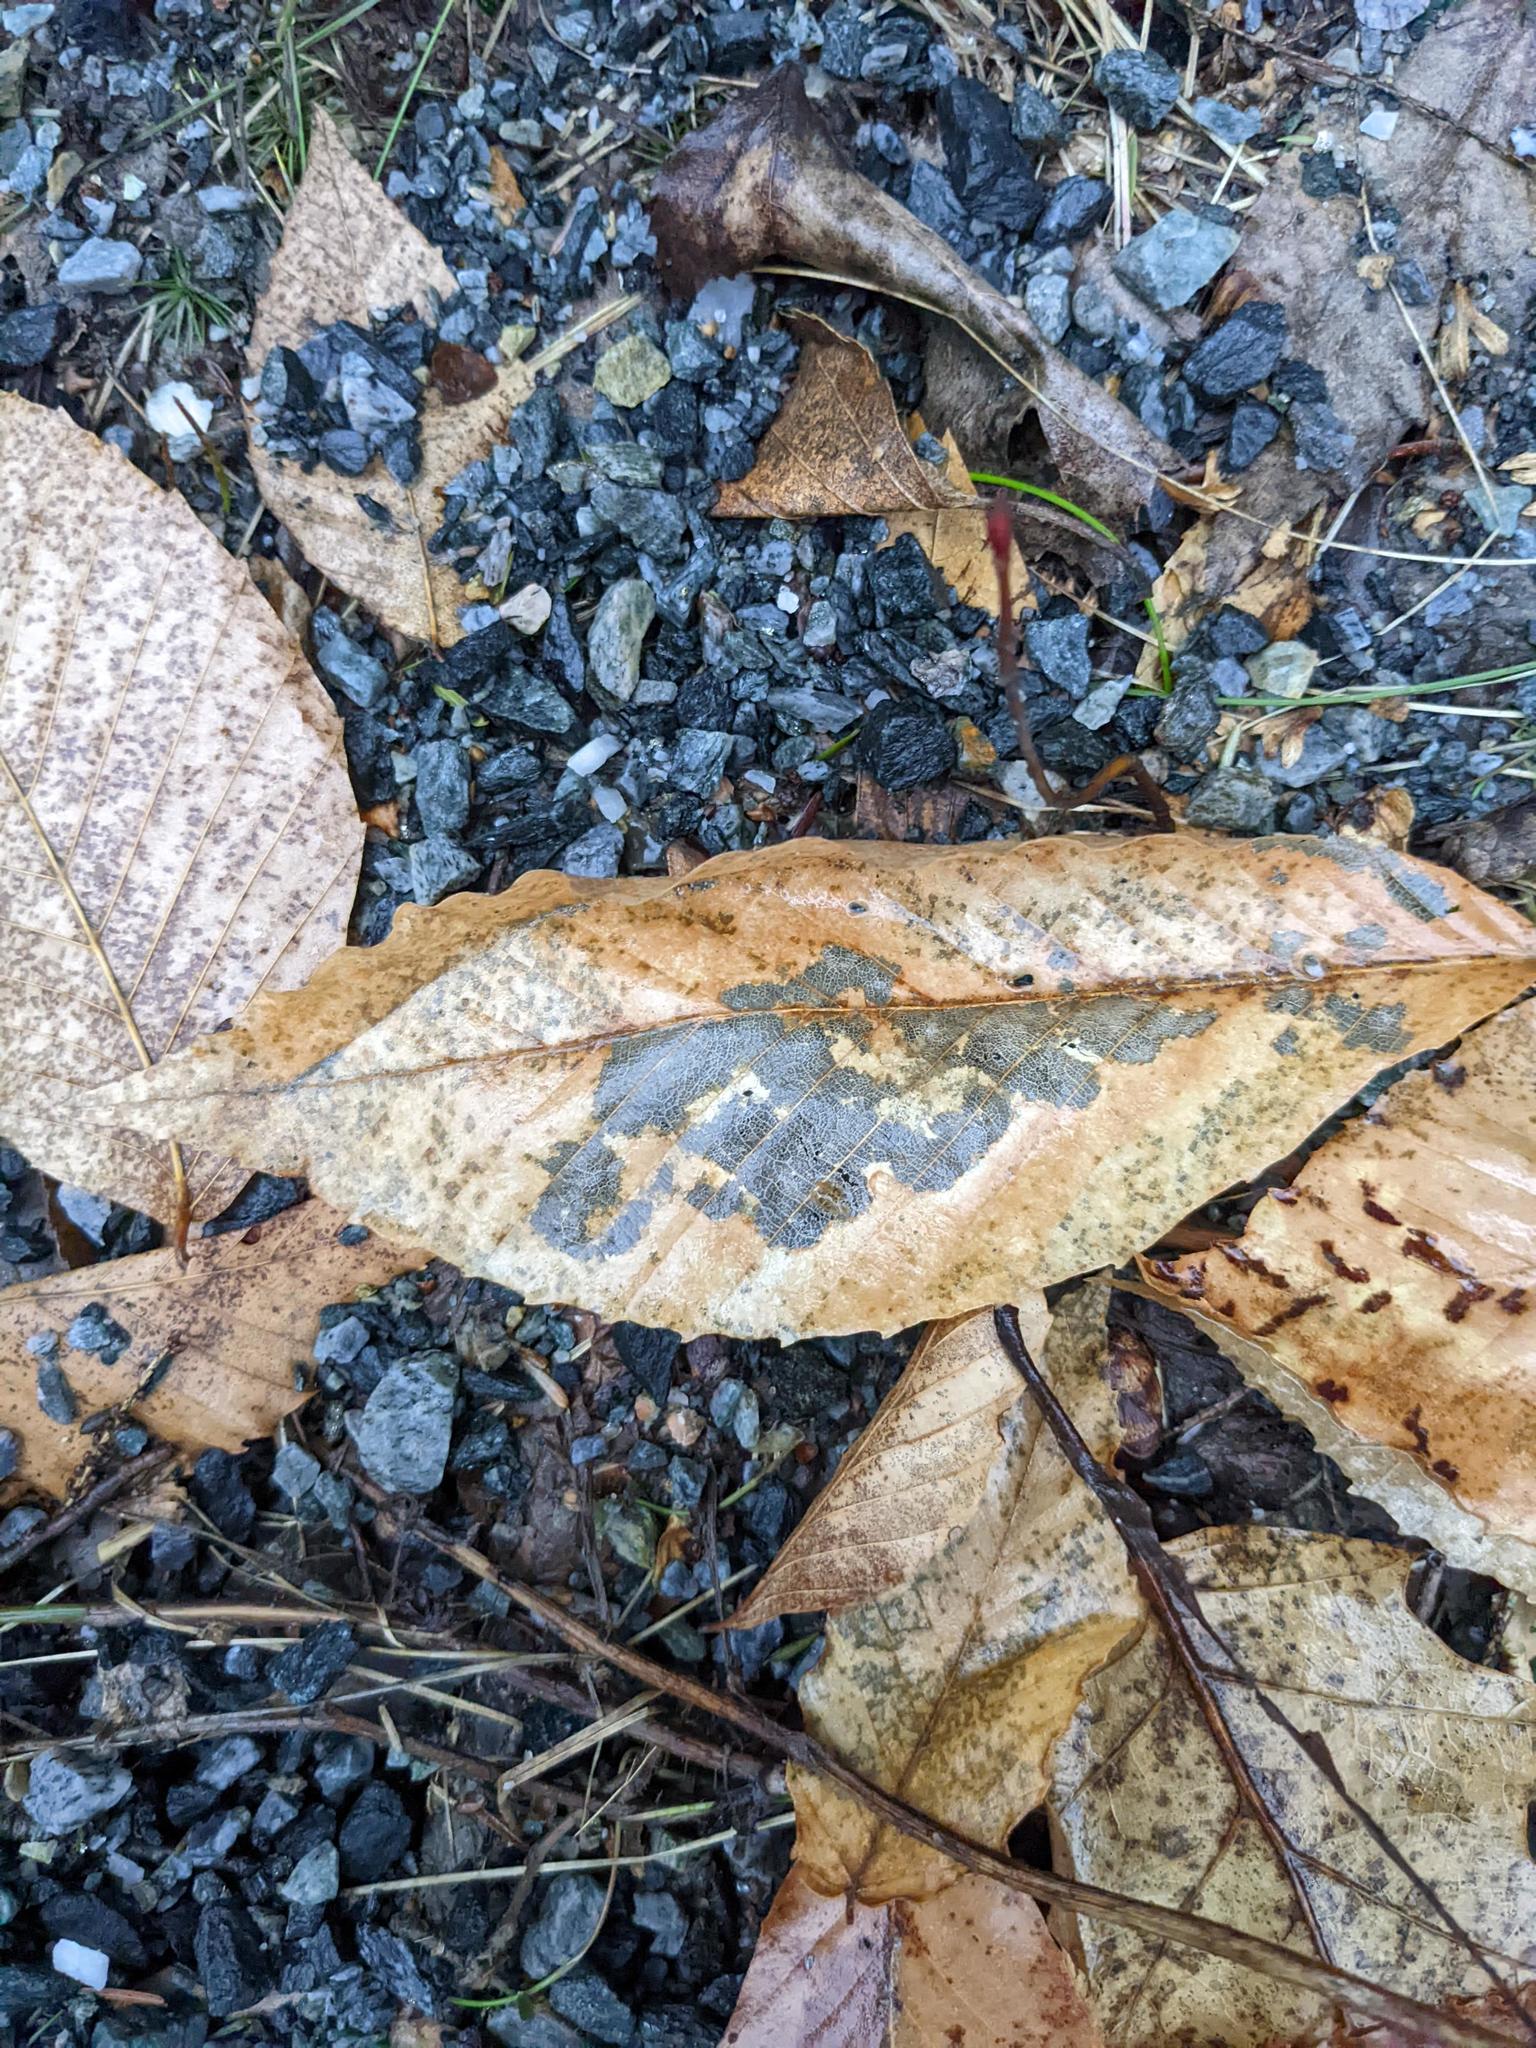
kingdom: Plantae
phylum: Tracheophyta
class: Magnoliopsida
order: Fagales
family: Fagaceae
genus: Fagus
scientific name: Fagus grandifolia
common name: American beech
